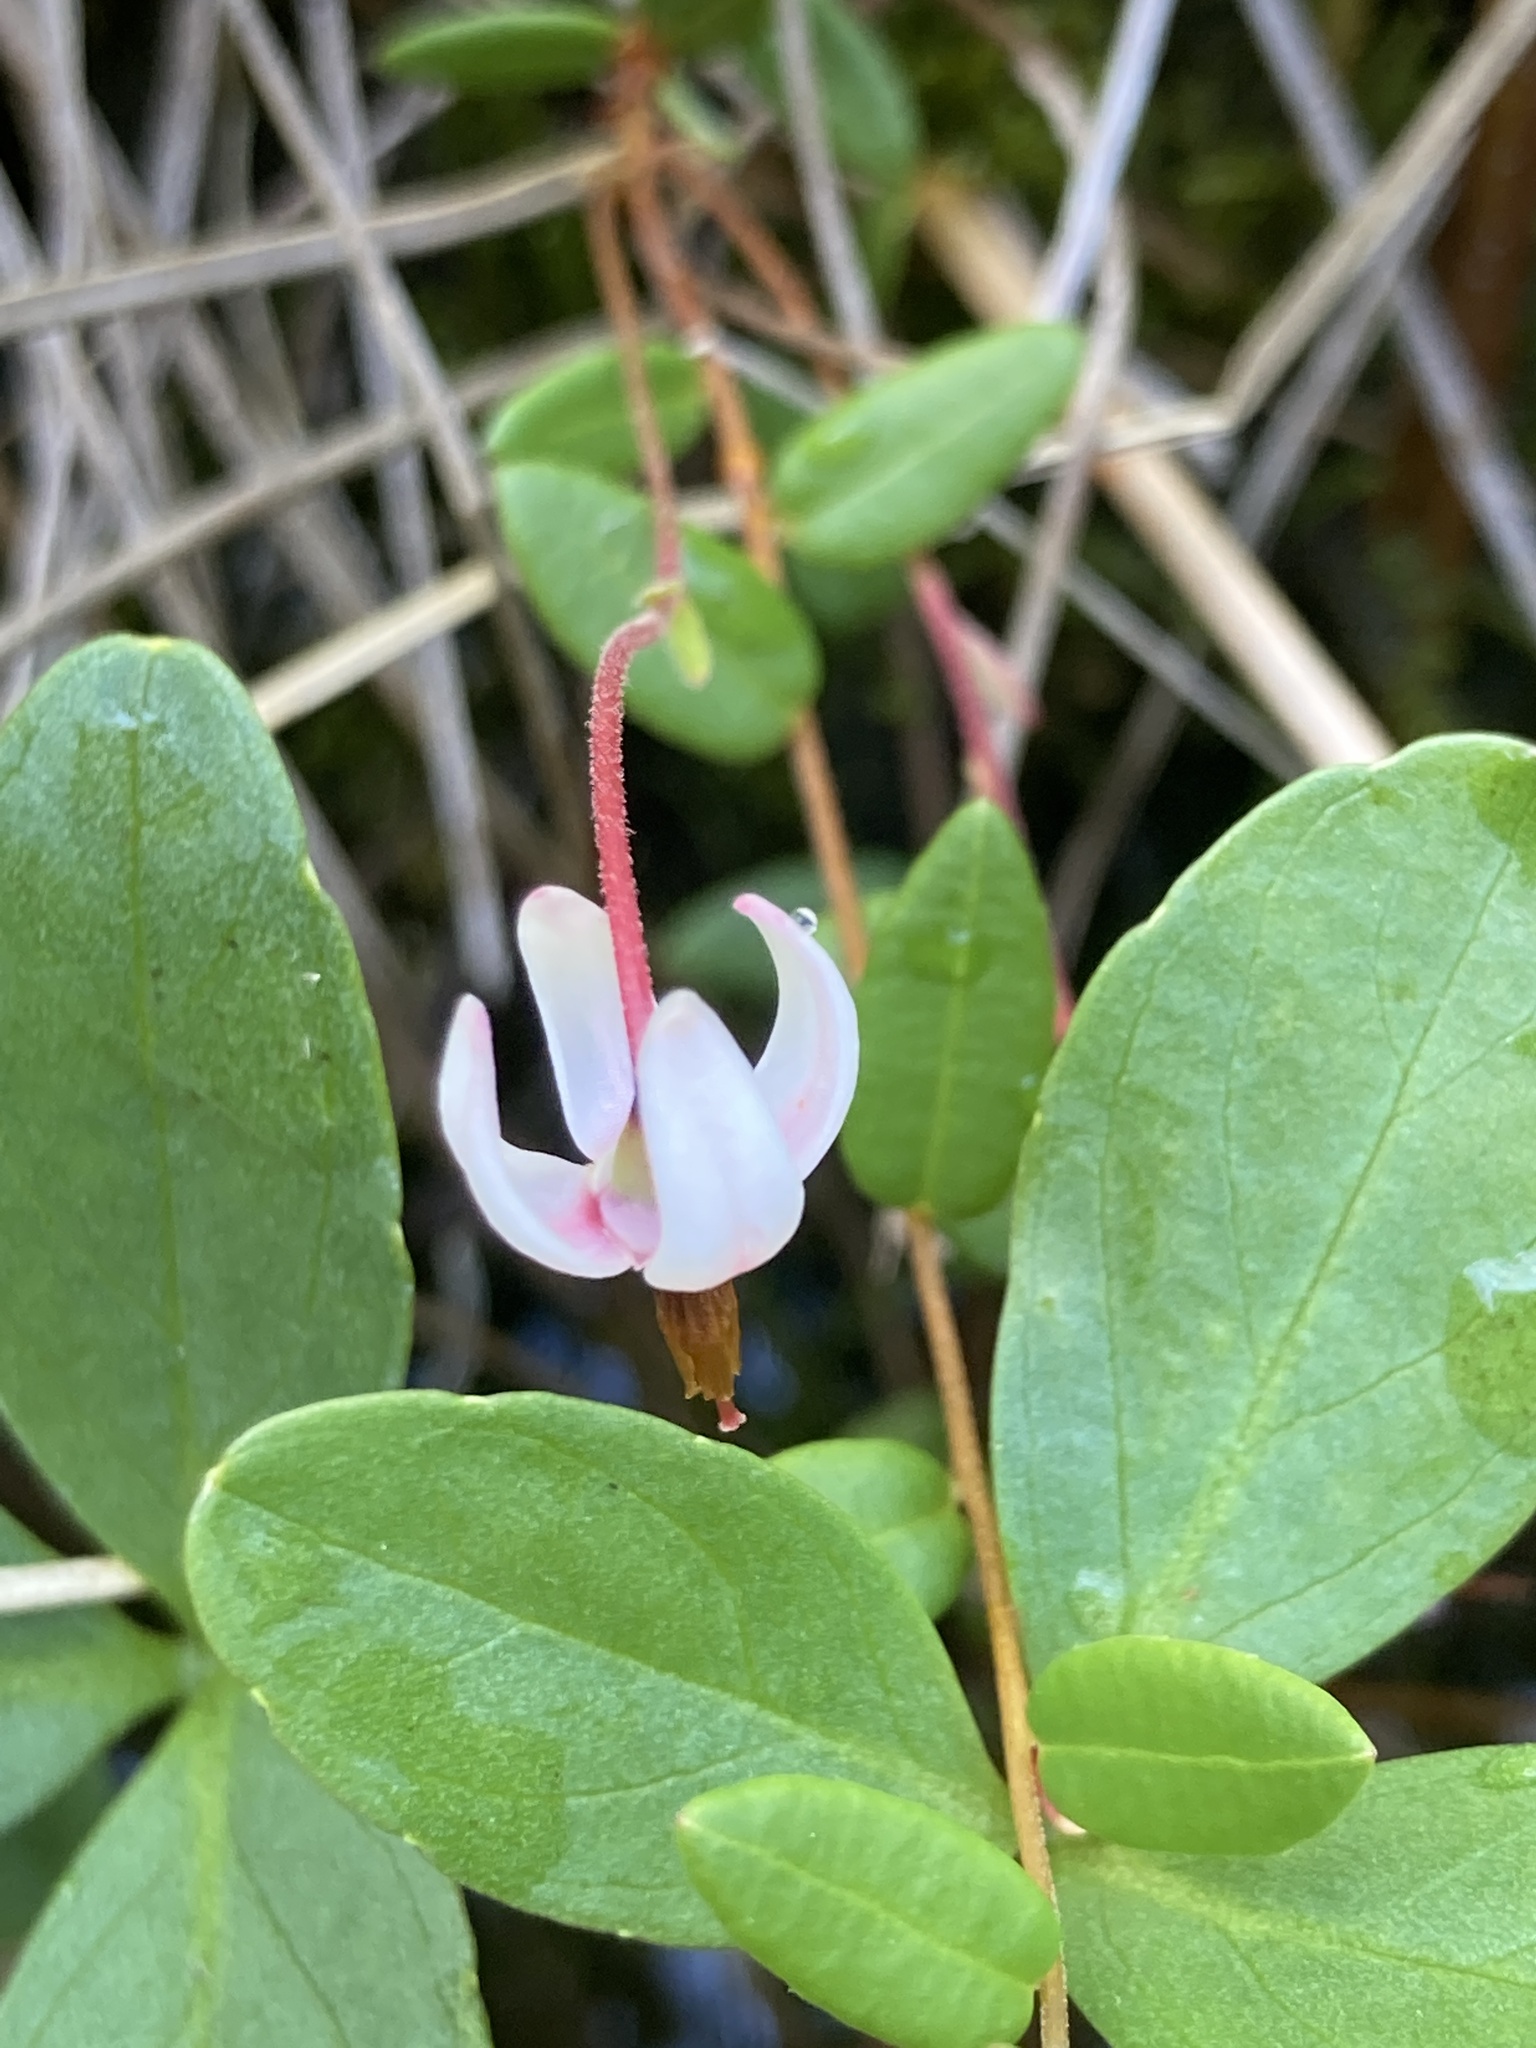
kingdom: Plantae
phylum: Tracheophyta
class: Magnoliopsida
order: Ericales
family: Ericaceae
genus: Vaccinium
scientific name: Vaccinium macrocarpon
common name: American cranberry
